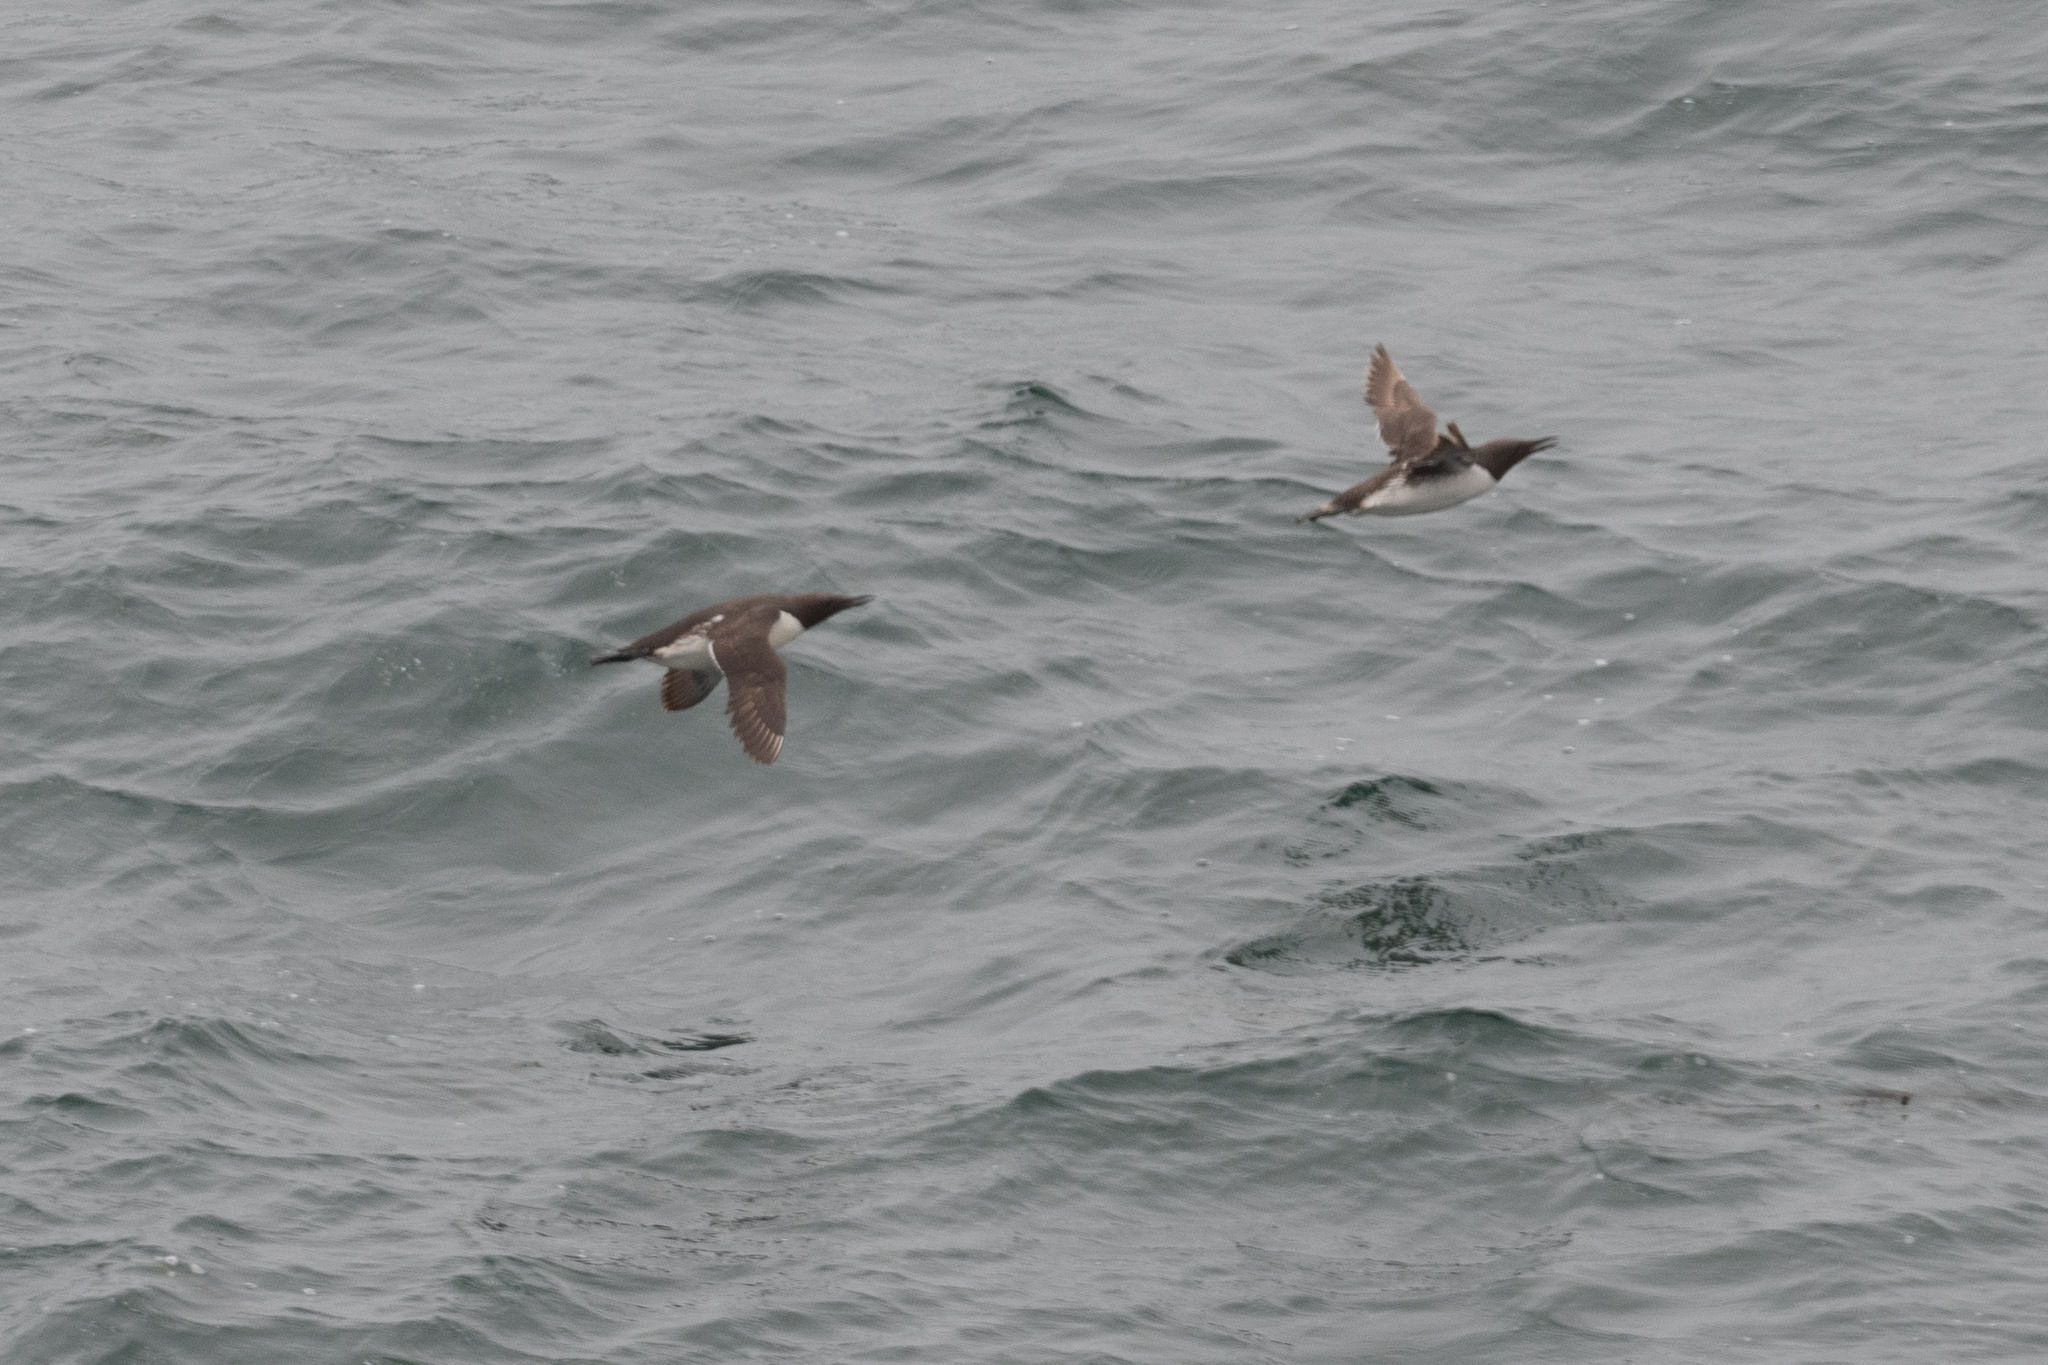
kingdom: Animalia
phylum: Chordata
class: Aves
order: Charadriiformes
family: Alcidae
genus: Uria
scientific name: Uria aalge
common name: Common murre
